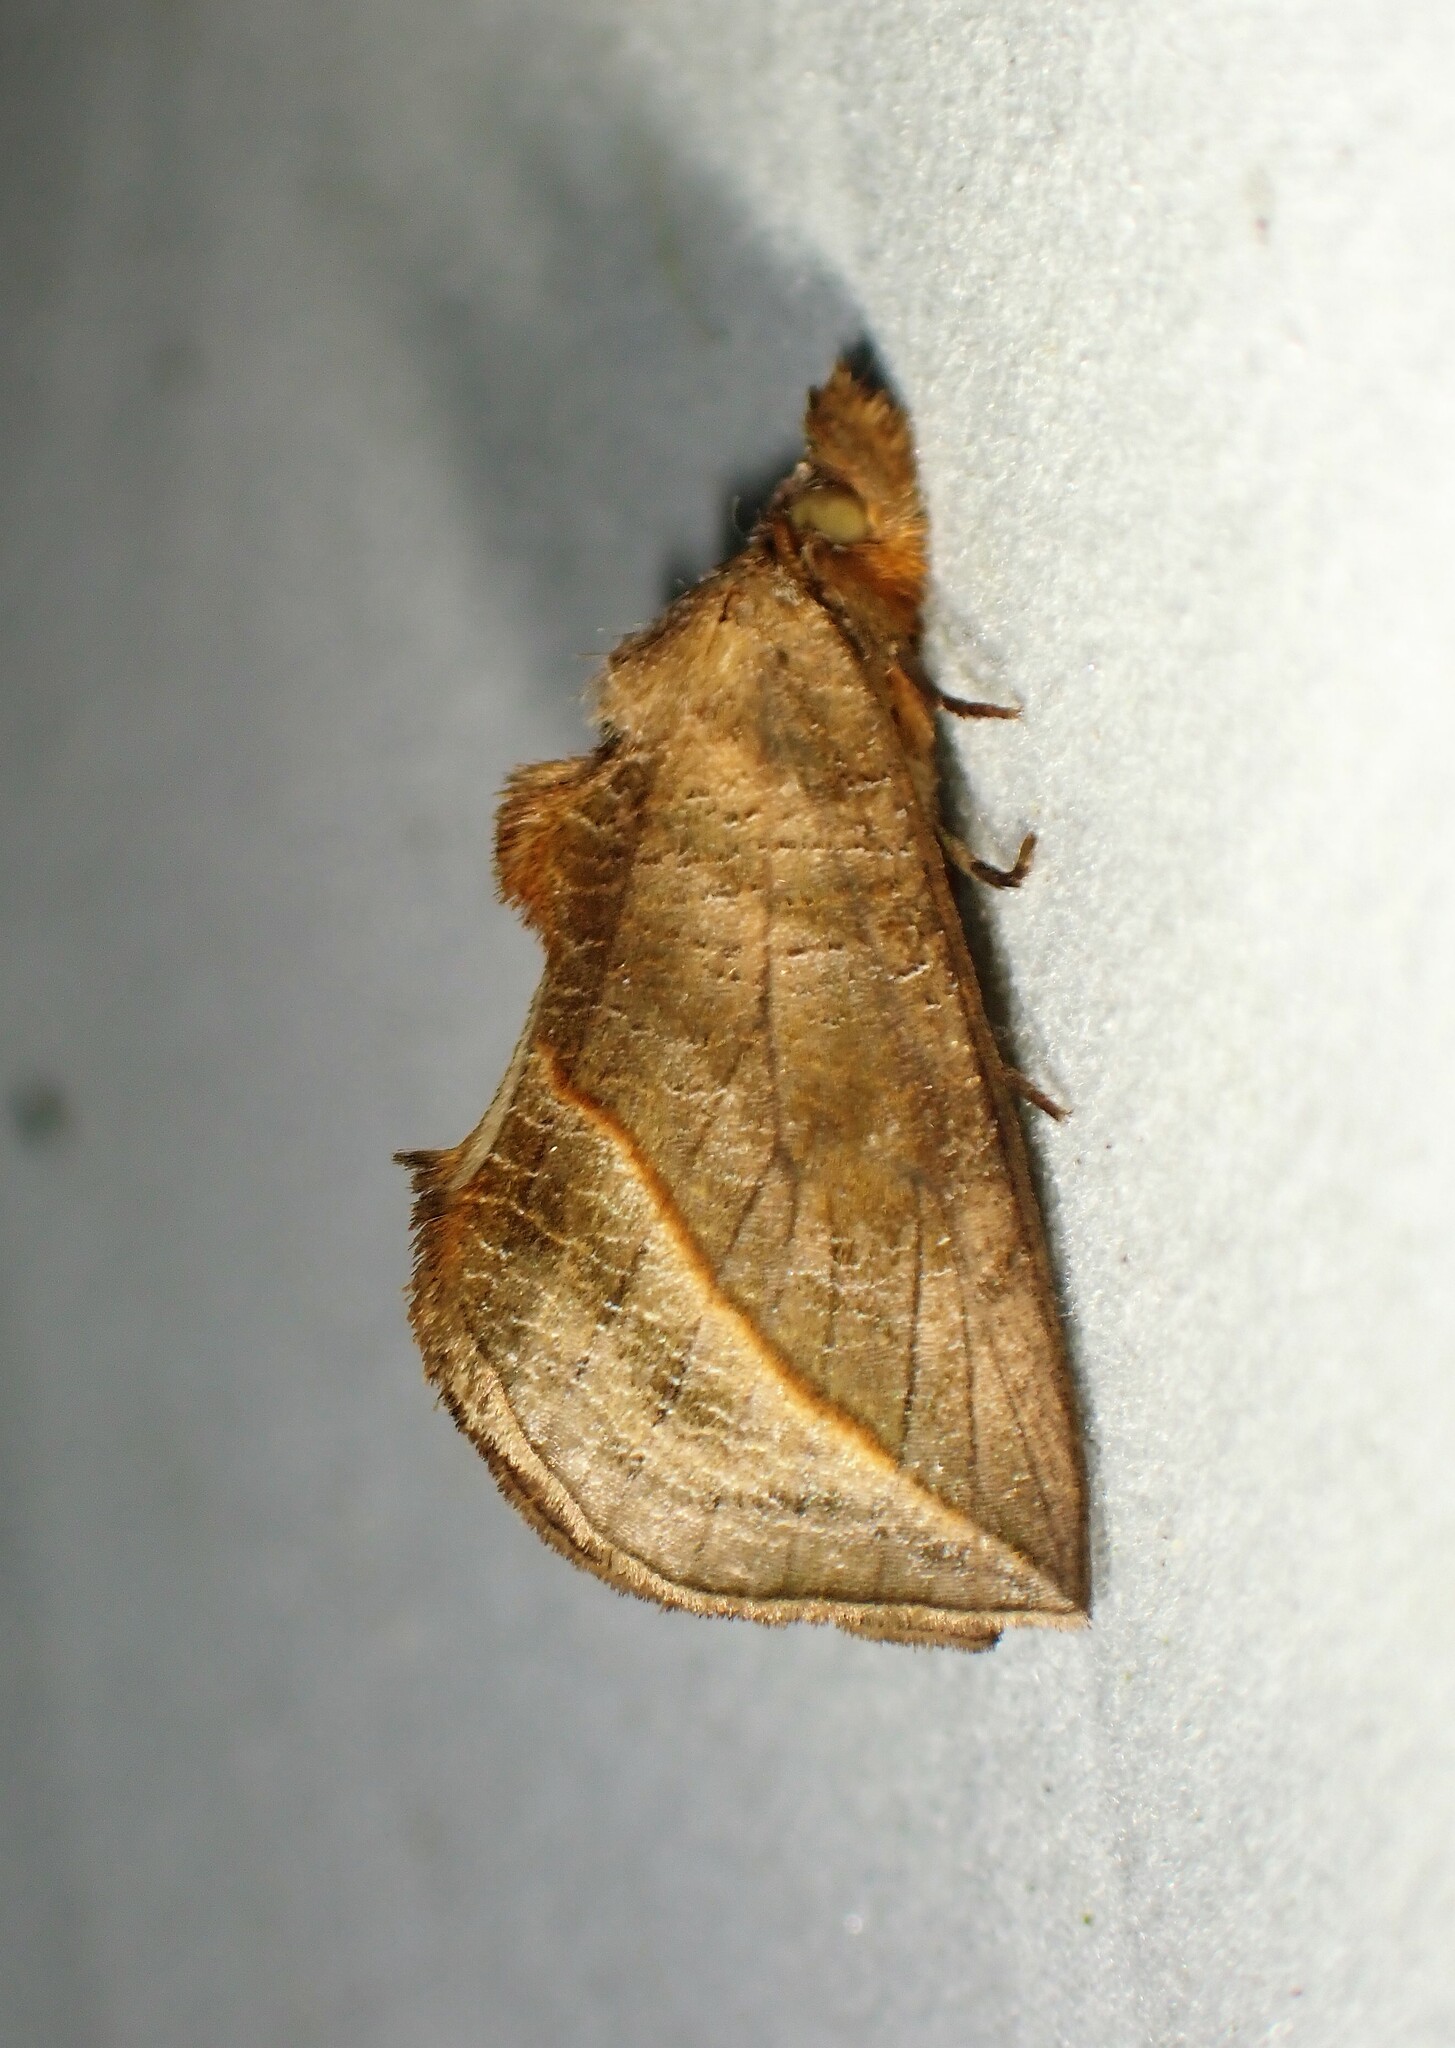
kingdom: Animalia
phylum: Arthropoda
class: Insecta
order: Lepidoptera
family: Erebidae
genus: Calyptra
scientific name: Calyptra canadensis
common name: Canadian owlet
